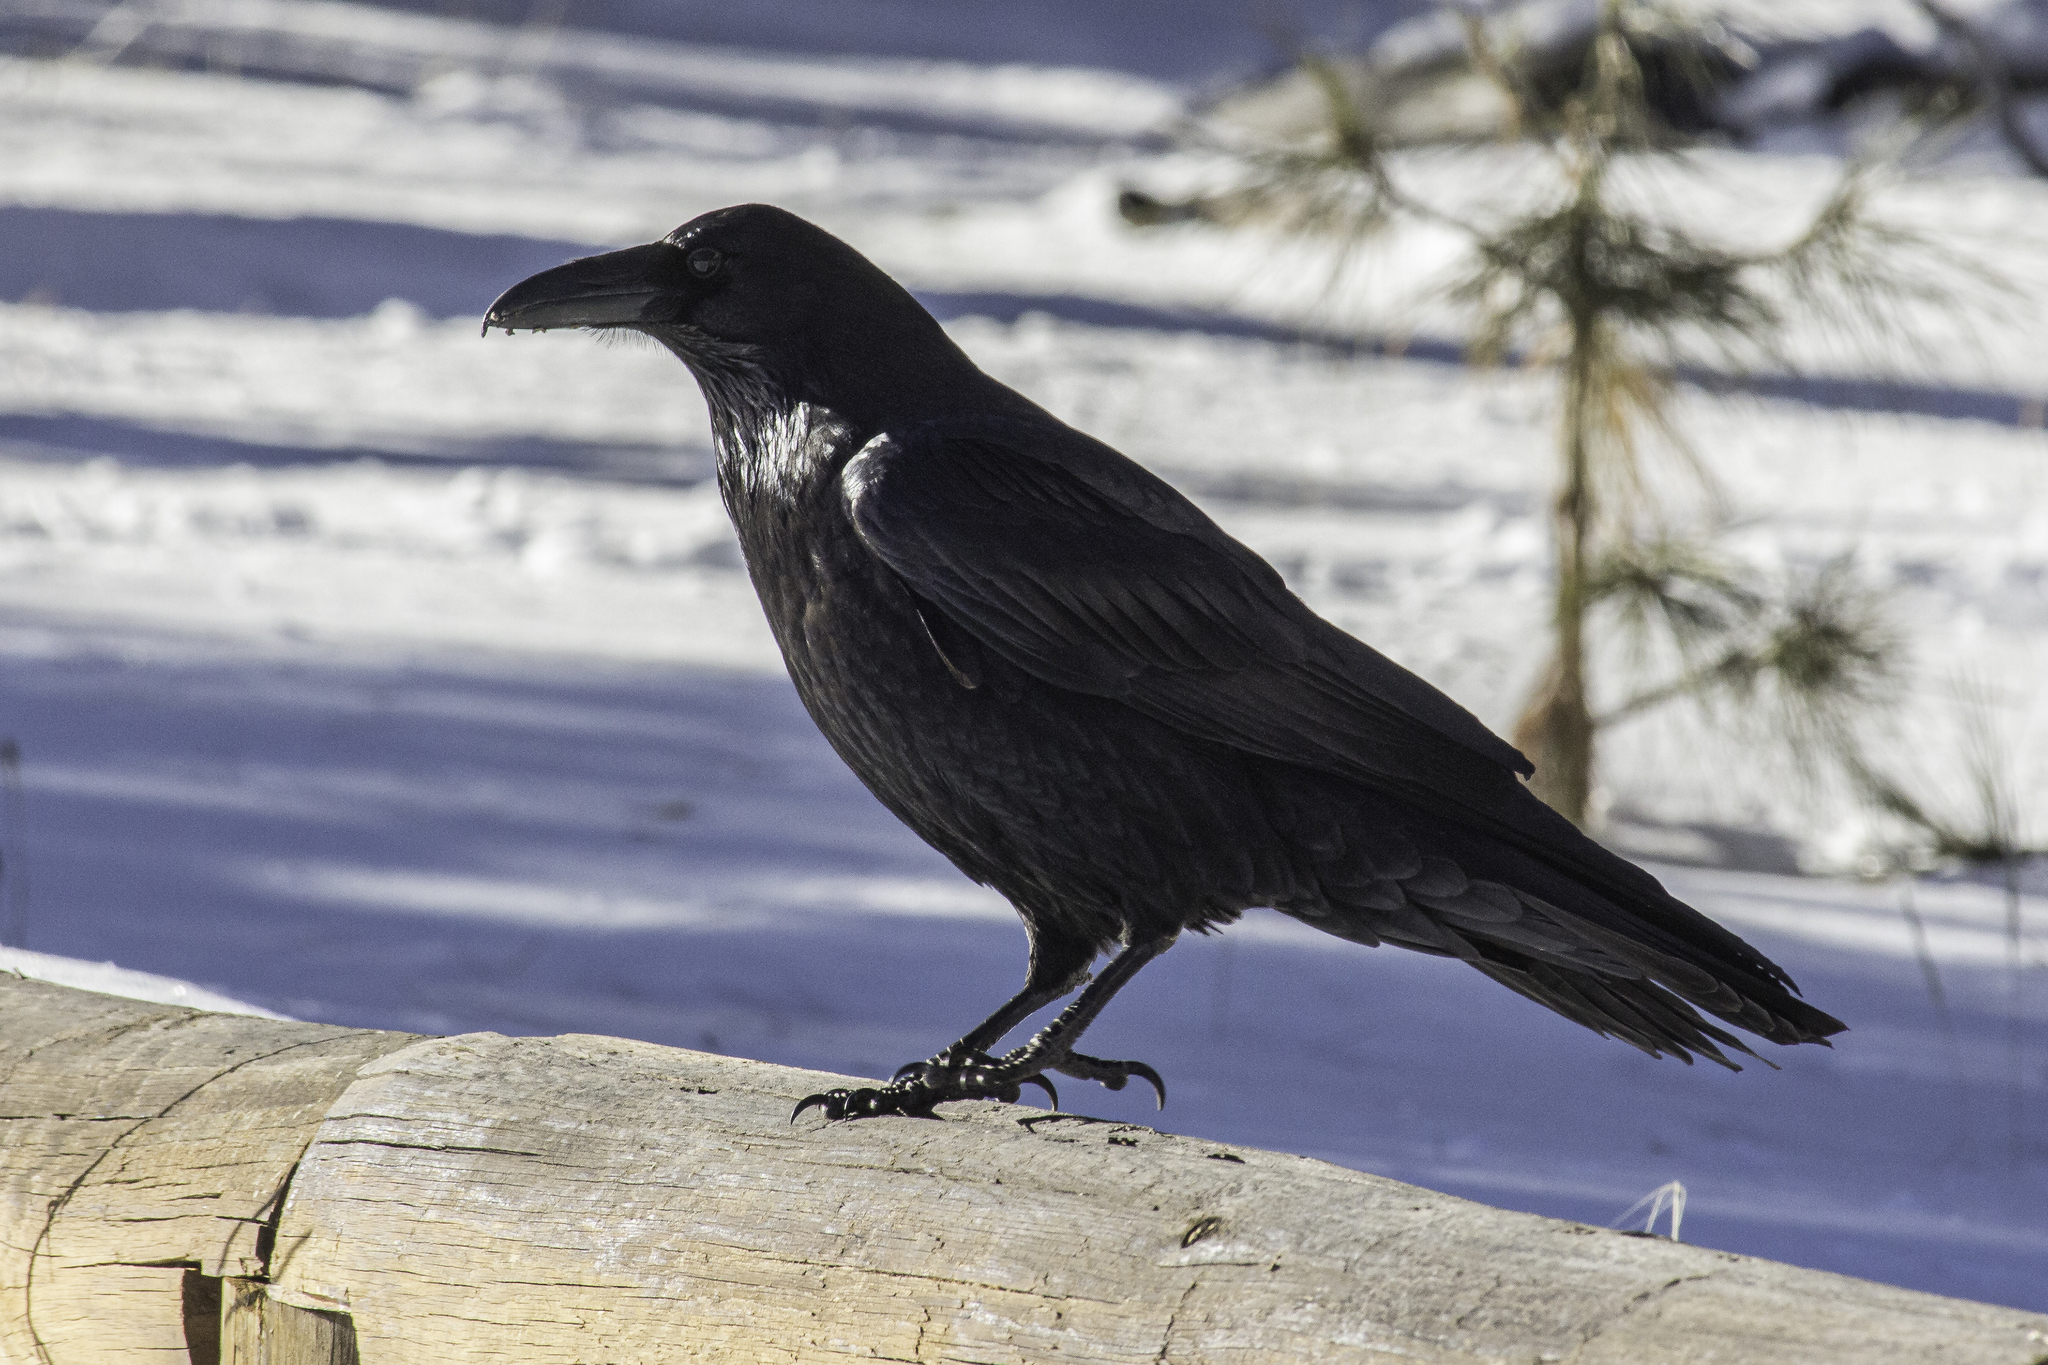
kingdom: Animalia
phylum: Chordata
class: Aves
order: Passeriformes
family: Corvidae
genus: Corvus
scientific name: Corvus corax
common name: Common raven
